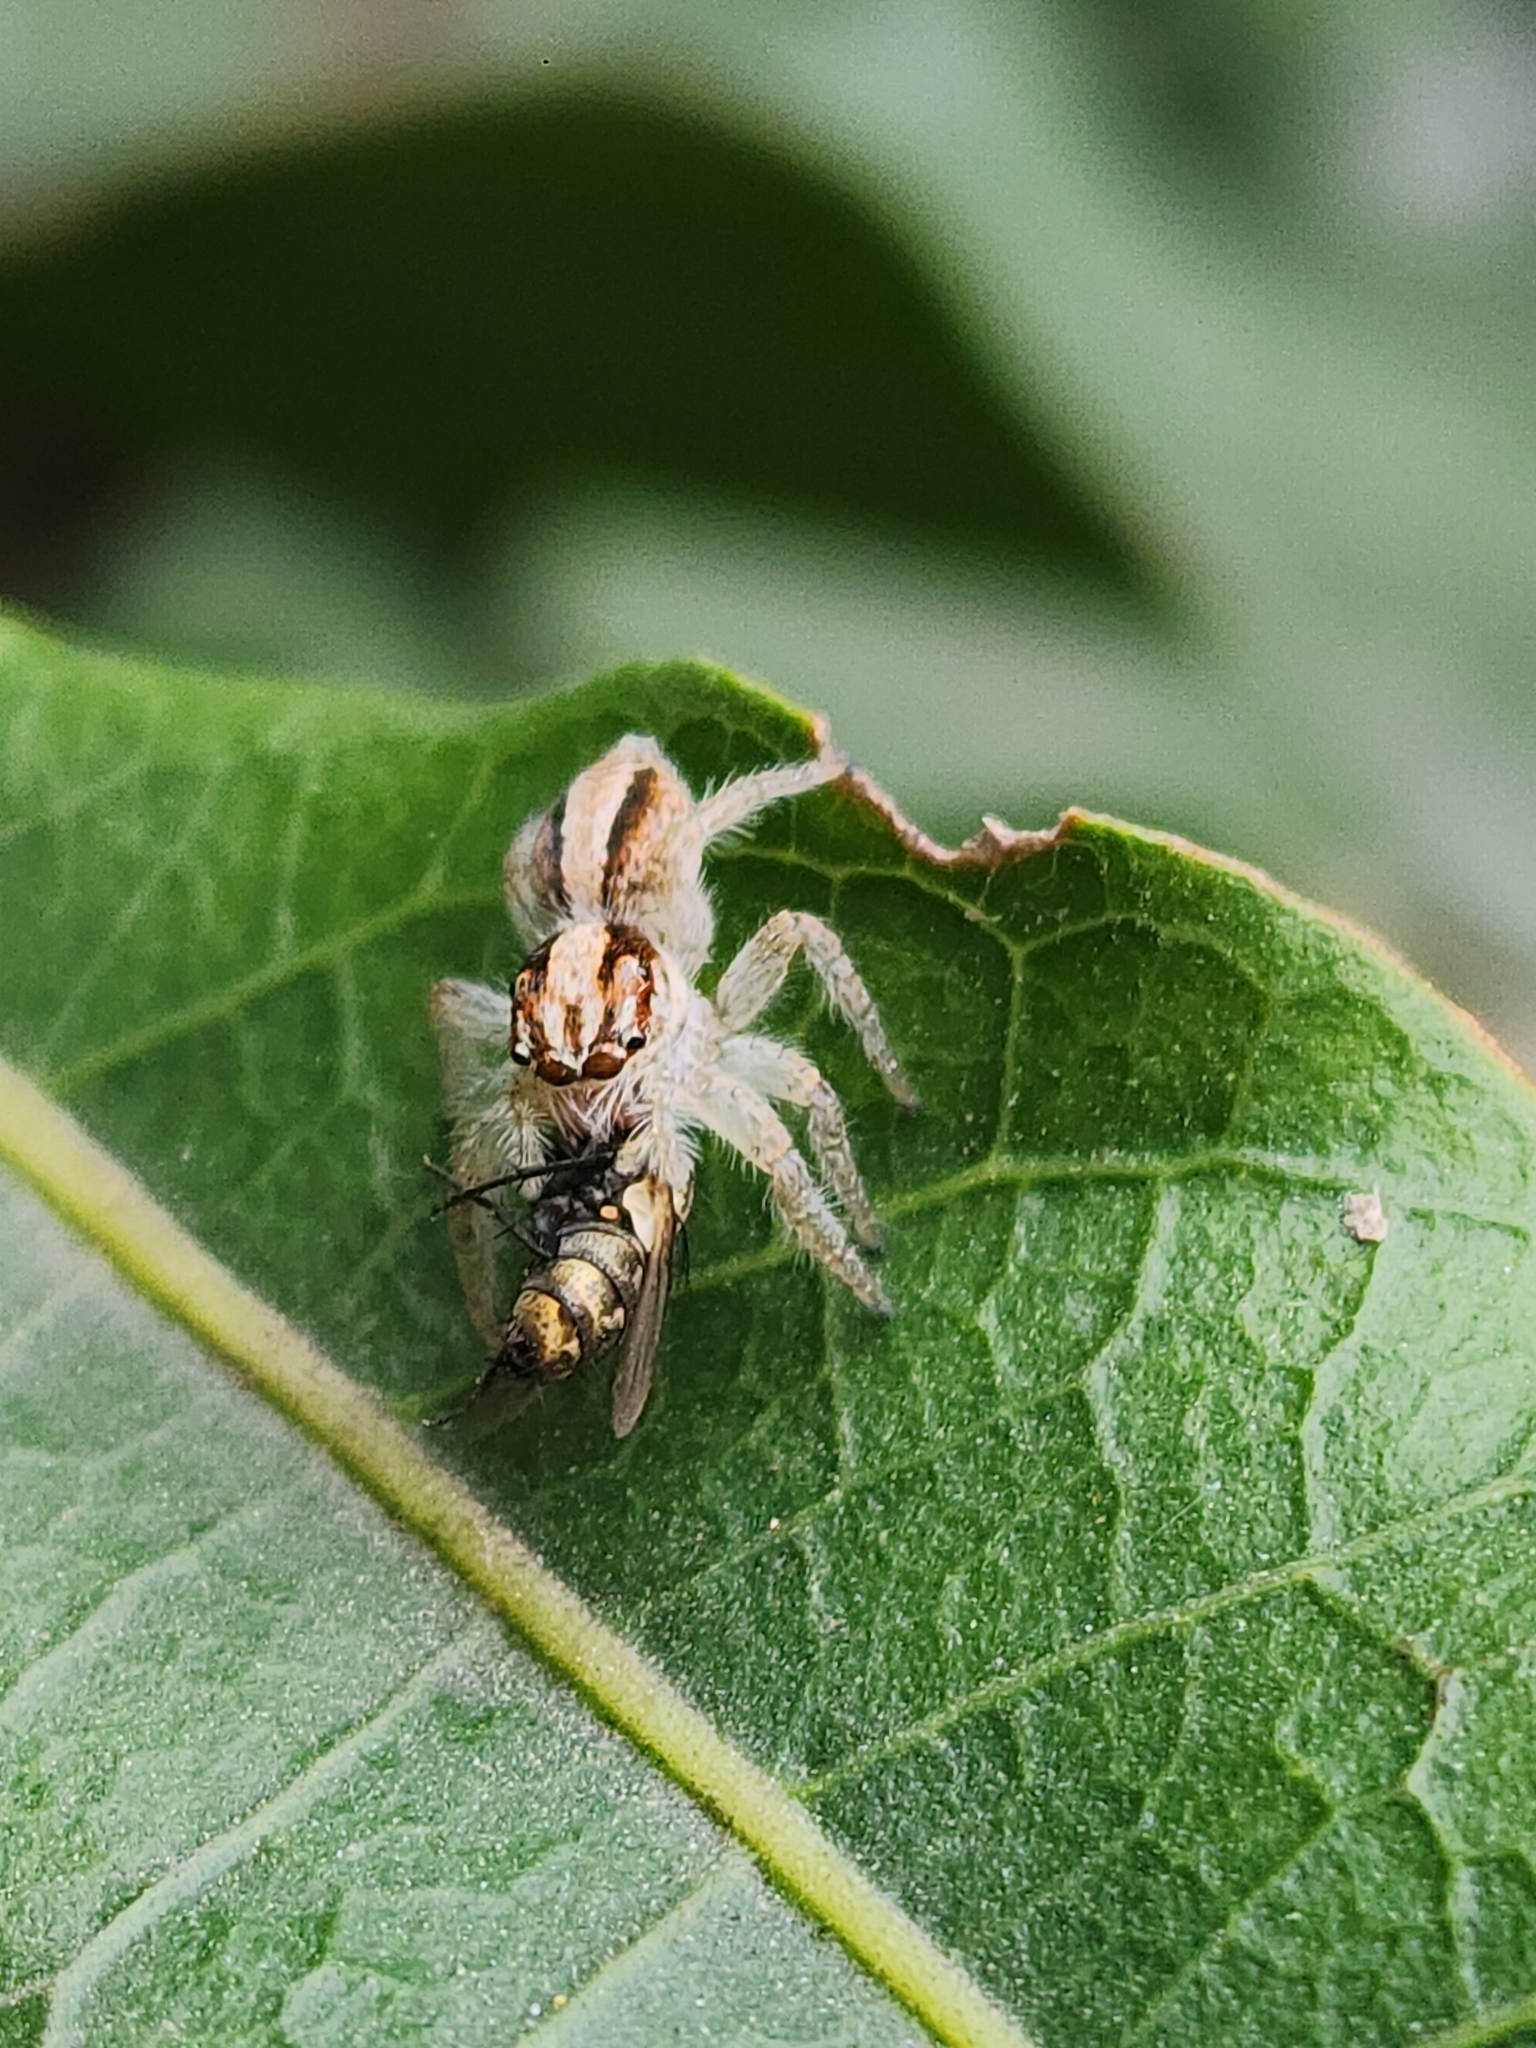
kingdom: Animalia
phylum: Arthropoda
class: Arachnida
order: Araneae
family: Salticidae
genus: Megafreya
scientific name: Megafreya sutrix
